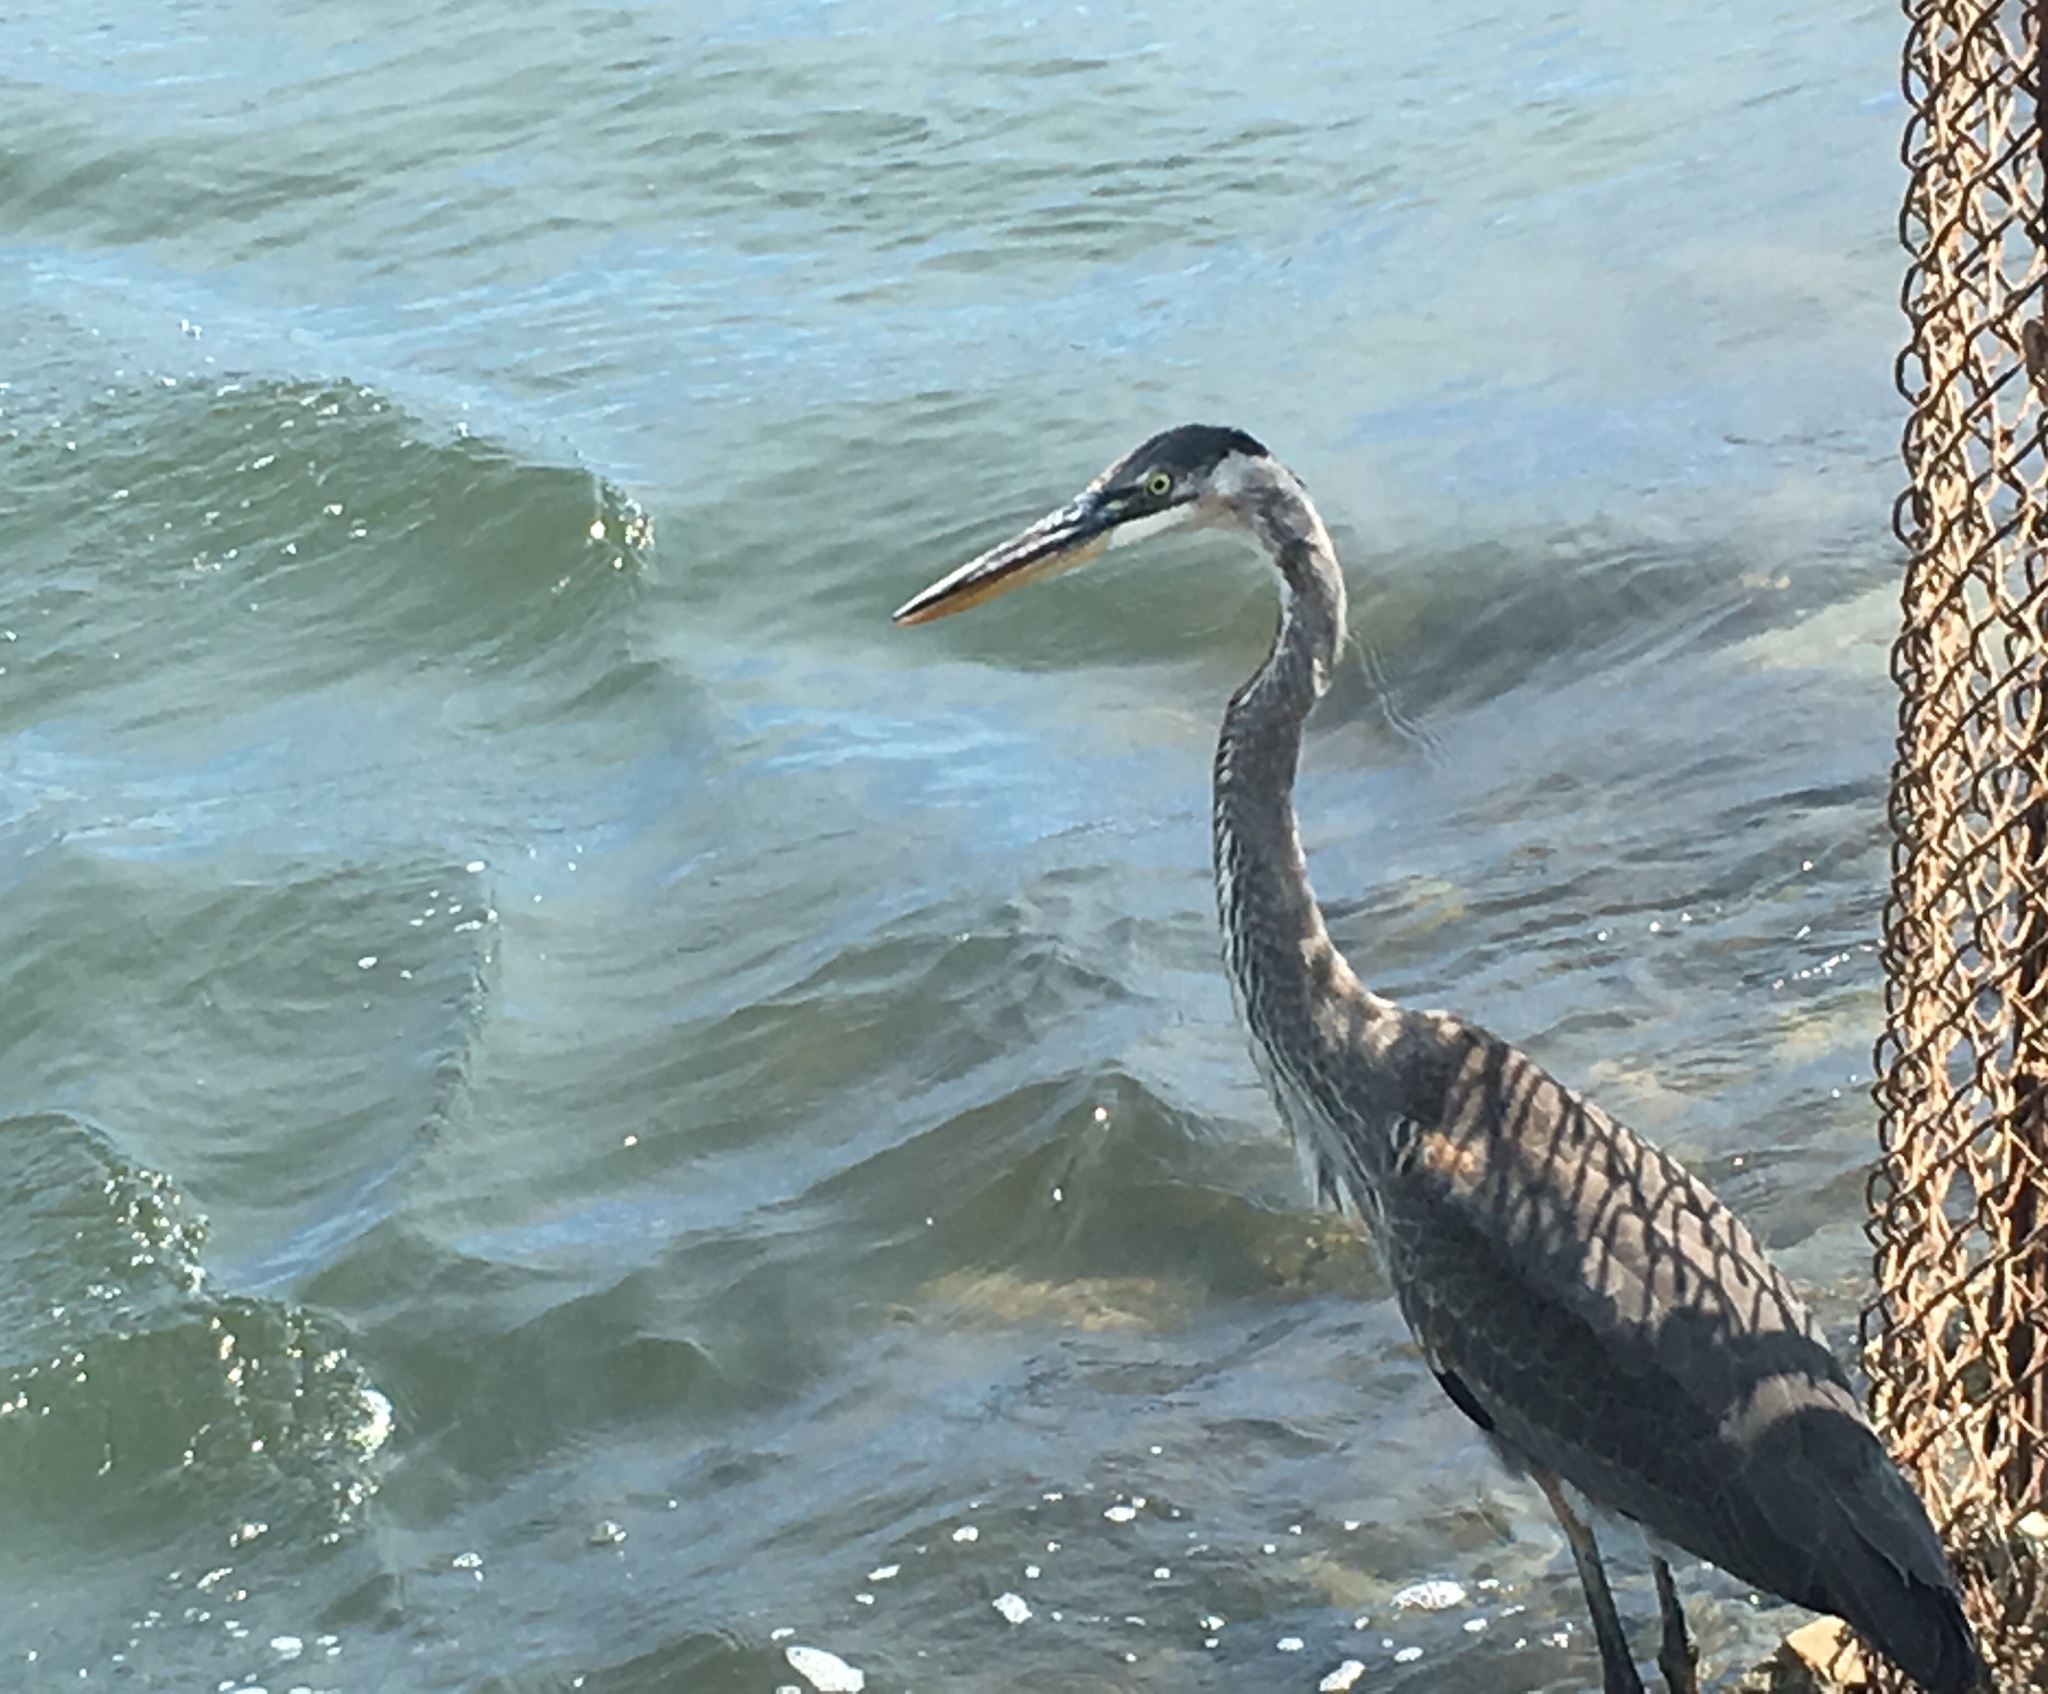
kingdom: Animalia
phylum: Chordata
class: Aves
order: Pelecaniformes
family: Ardeidae
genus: Ardea
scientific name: Ardea herodias
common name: Great blue heron
